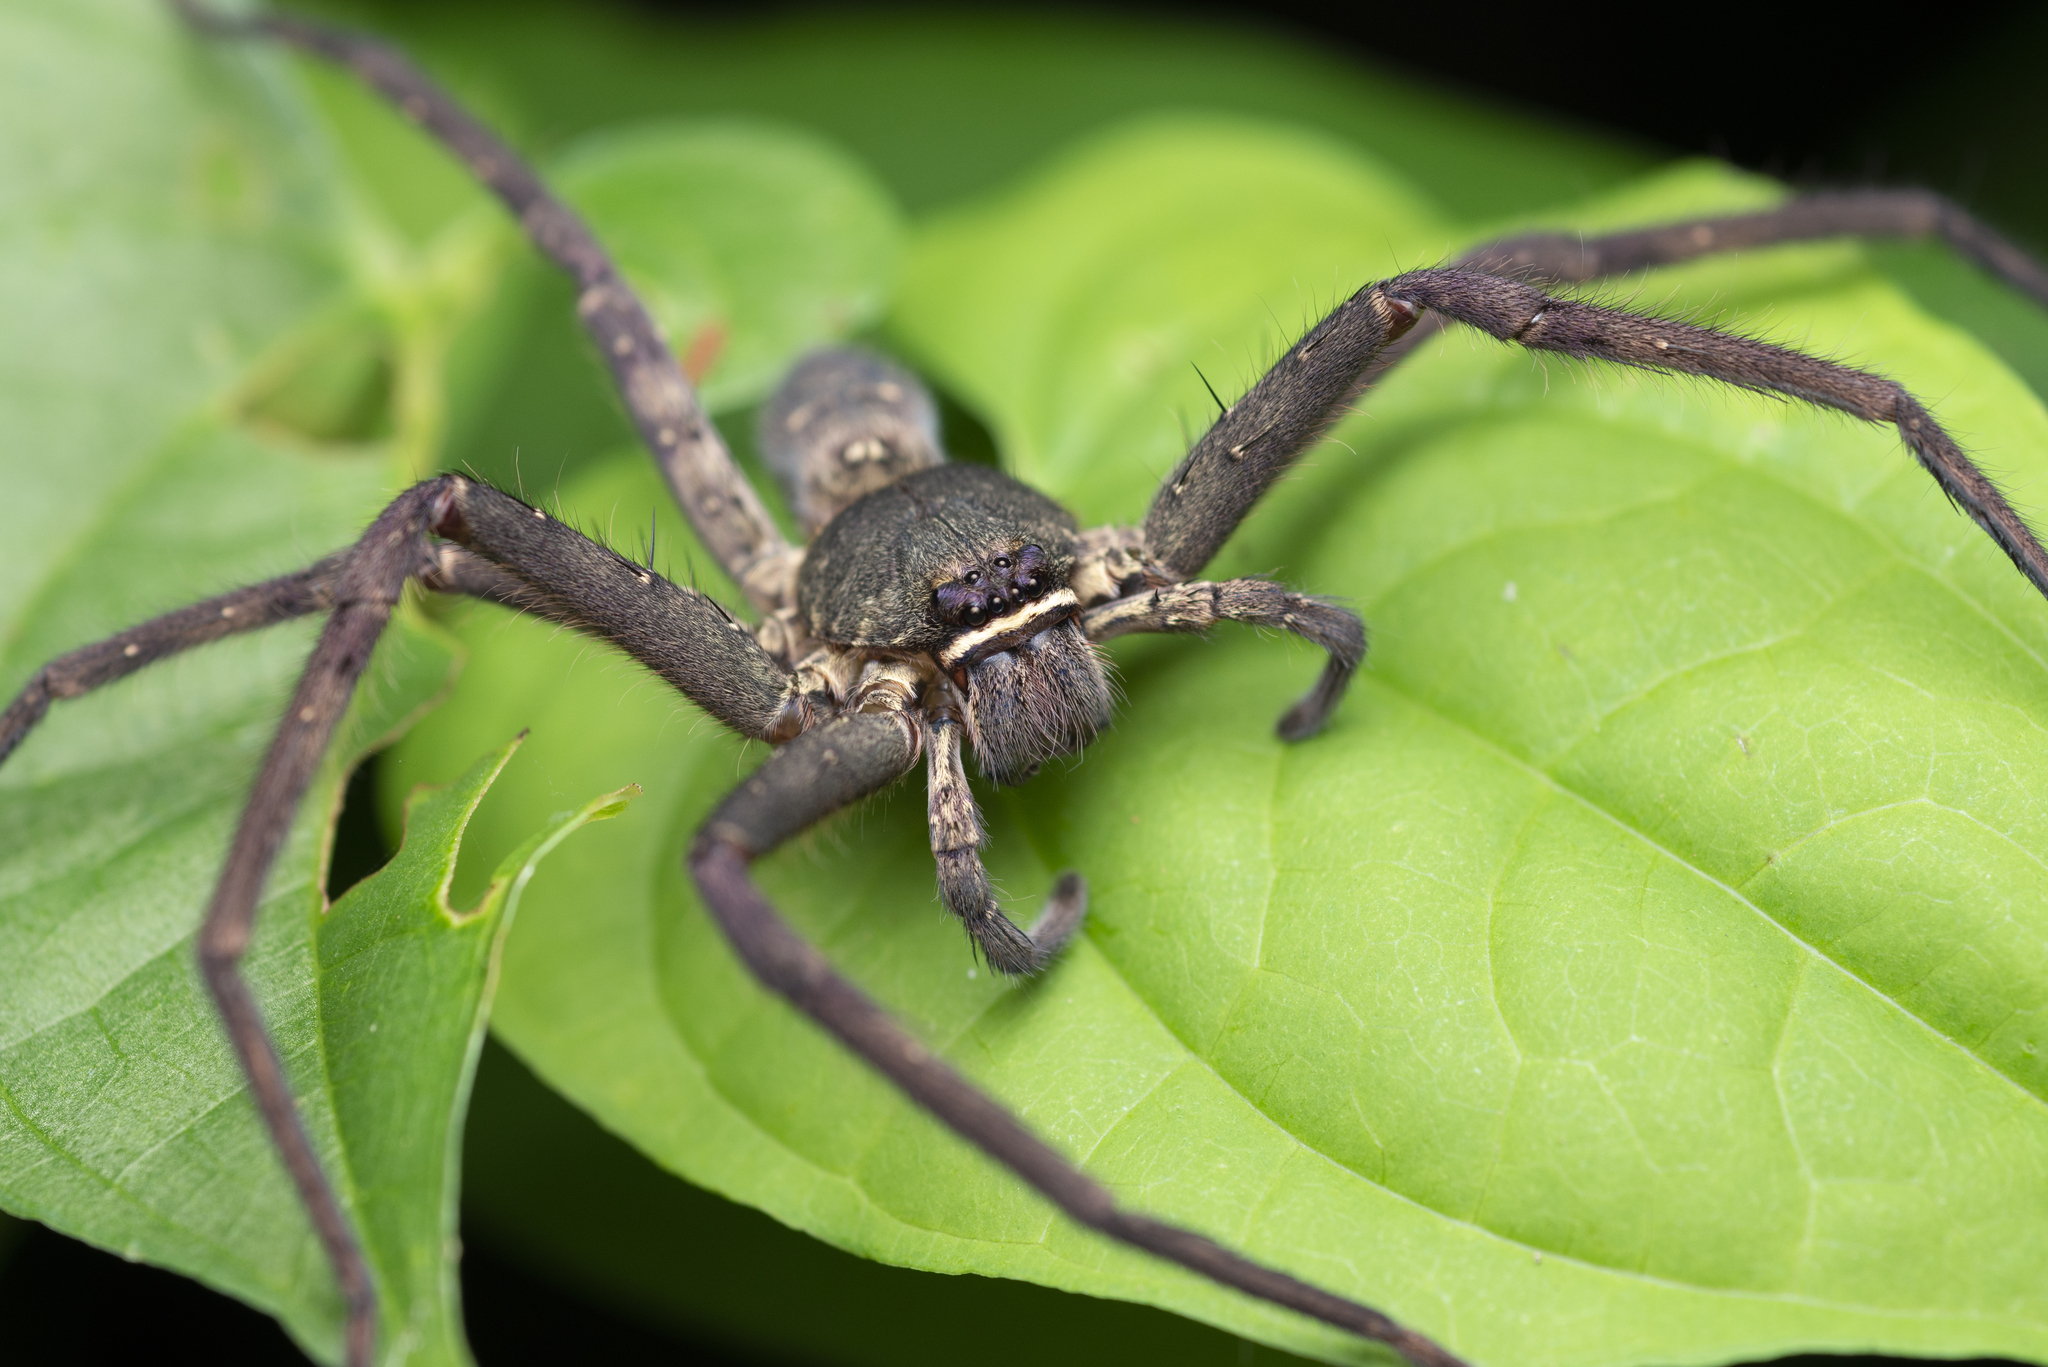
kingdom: Animalia
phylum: Arthropoda
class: Arachnida
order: Araneae
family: Sparassidae
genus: Heteropoda
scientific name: Heteropoda venatoria
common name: Huntsman spider
